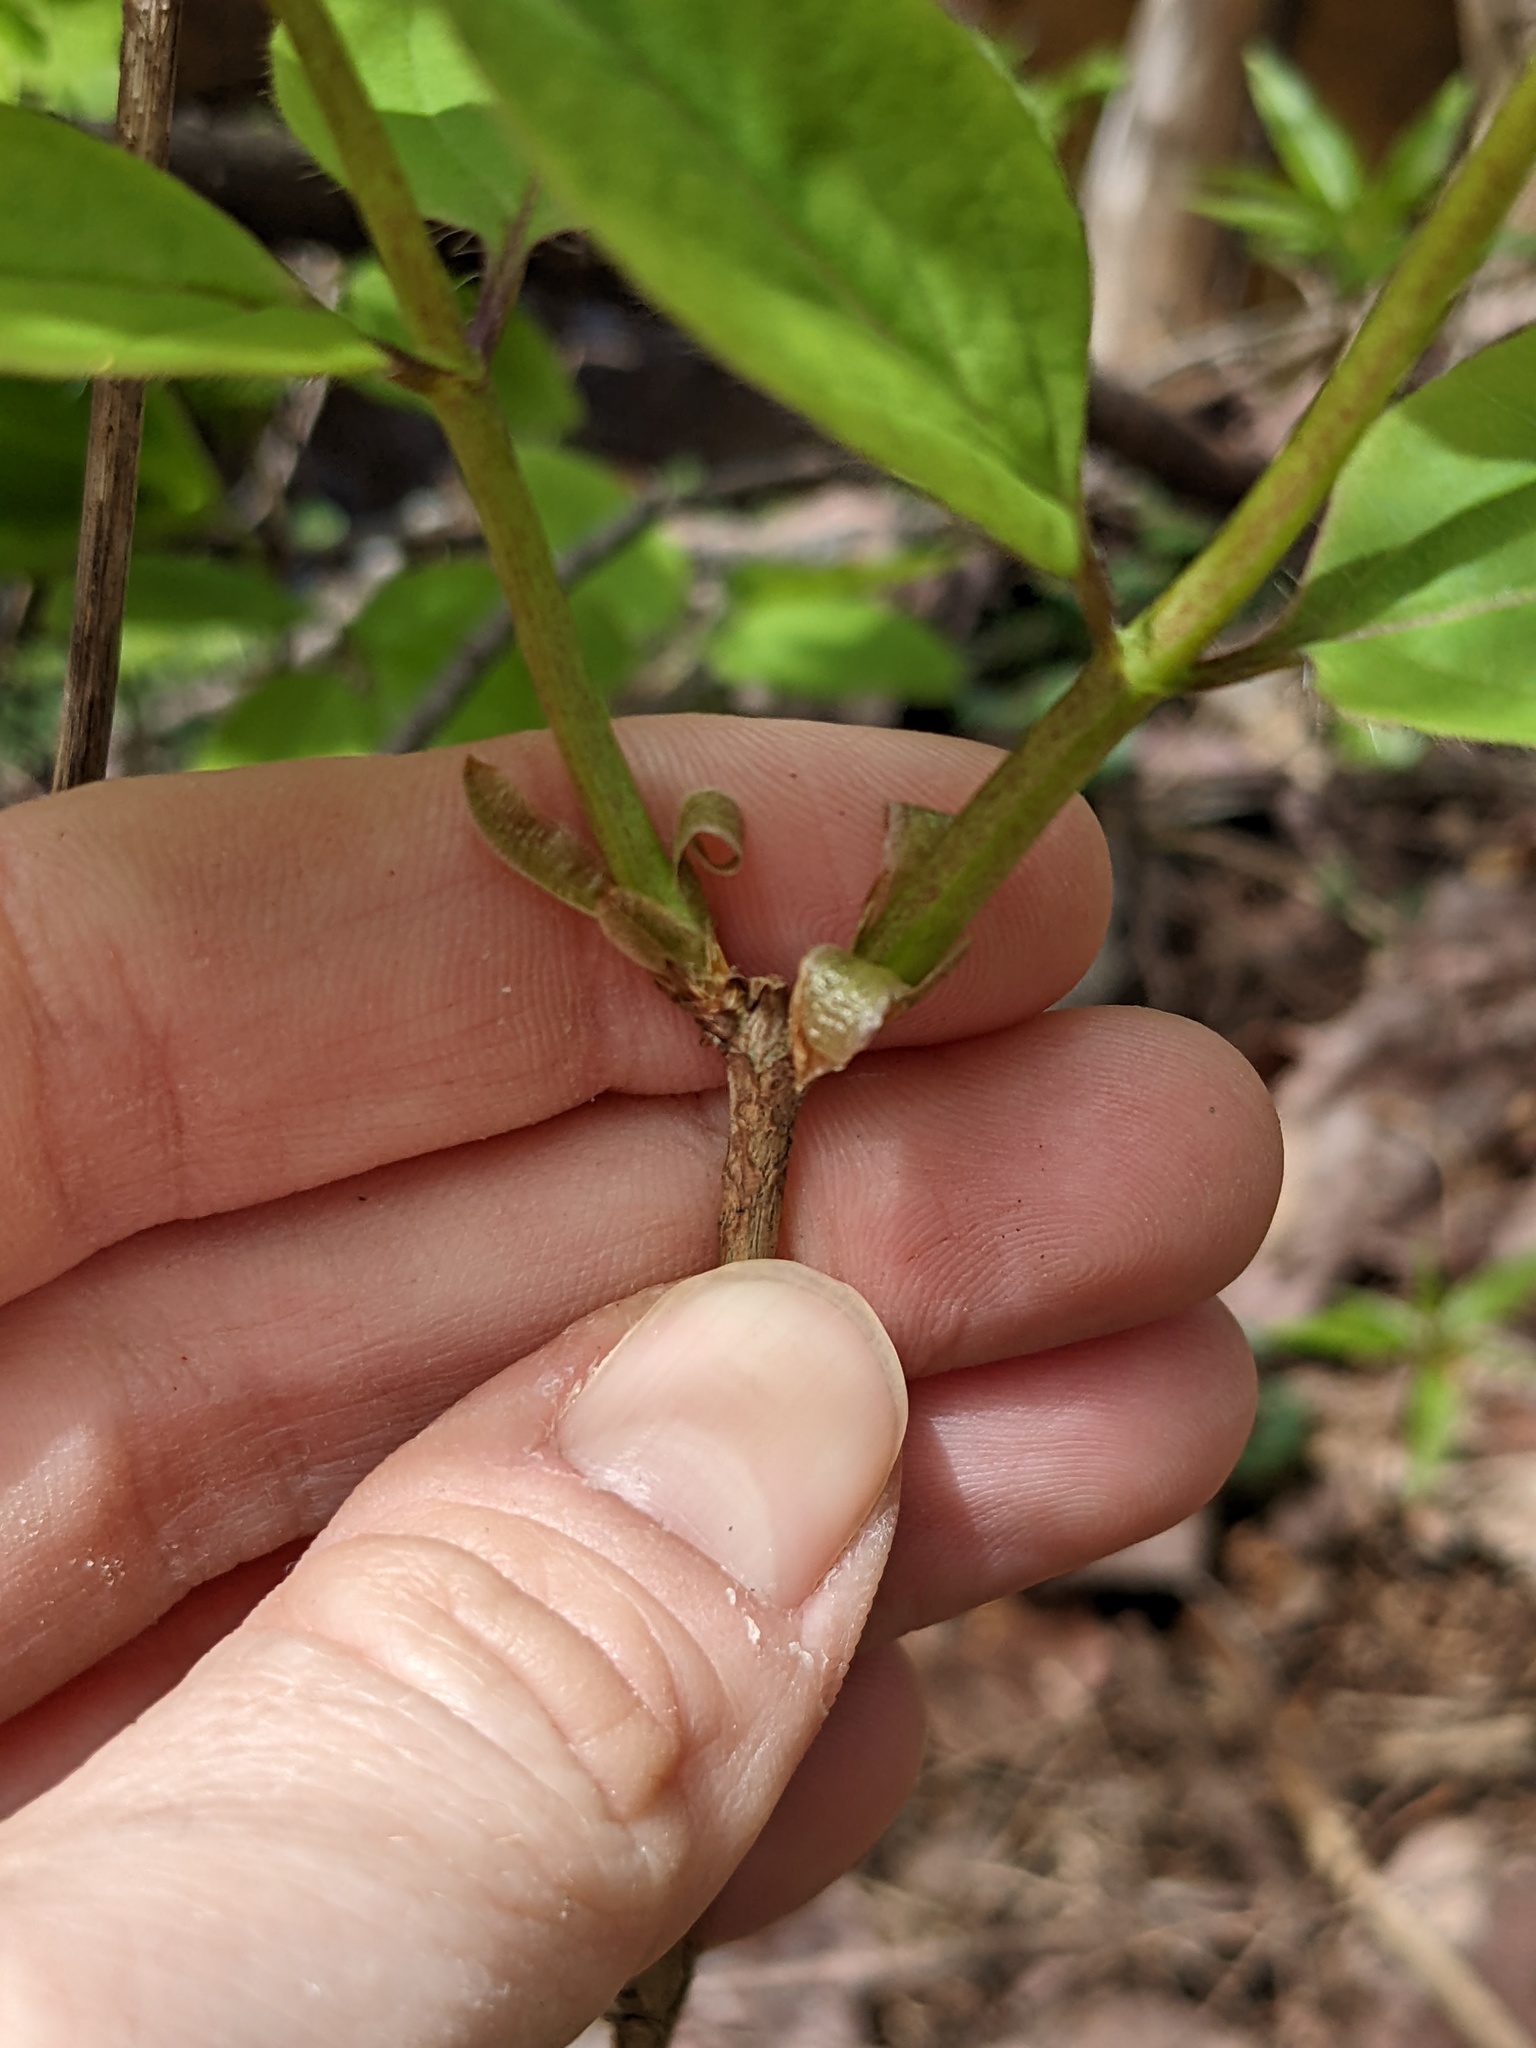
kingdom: Plantae
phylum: Tracheophyta
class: Magnoliopsida
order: Dipsacales
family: Caprifoliaceae
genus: Lonicera
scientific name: Lonicera canadensis
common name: American fly-honeysuckle
